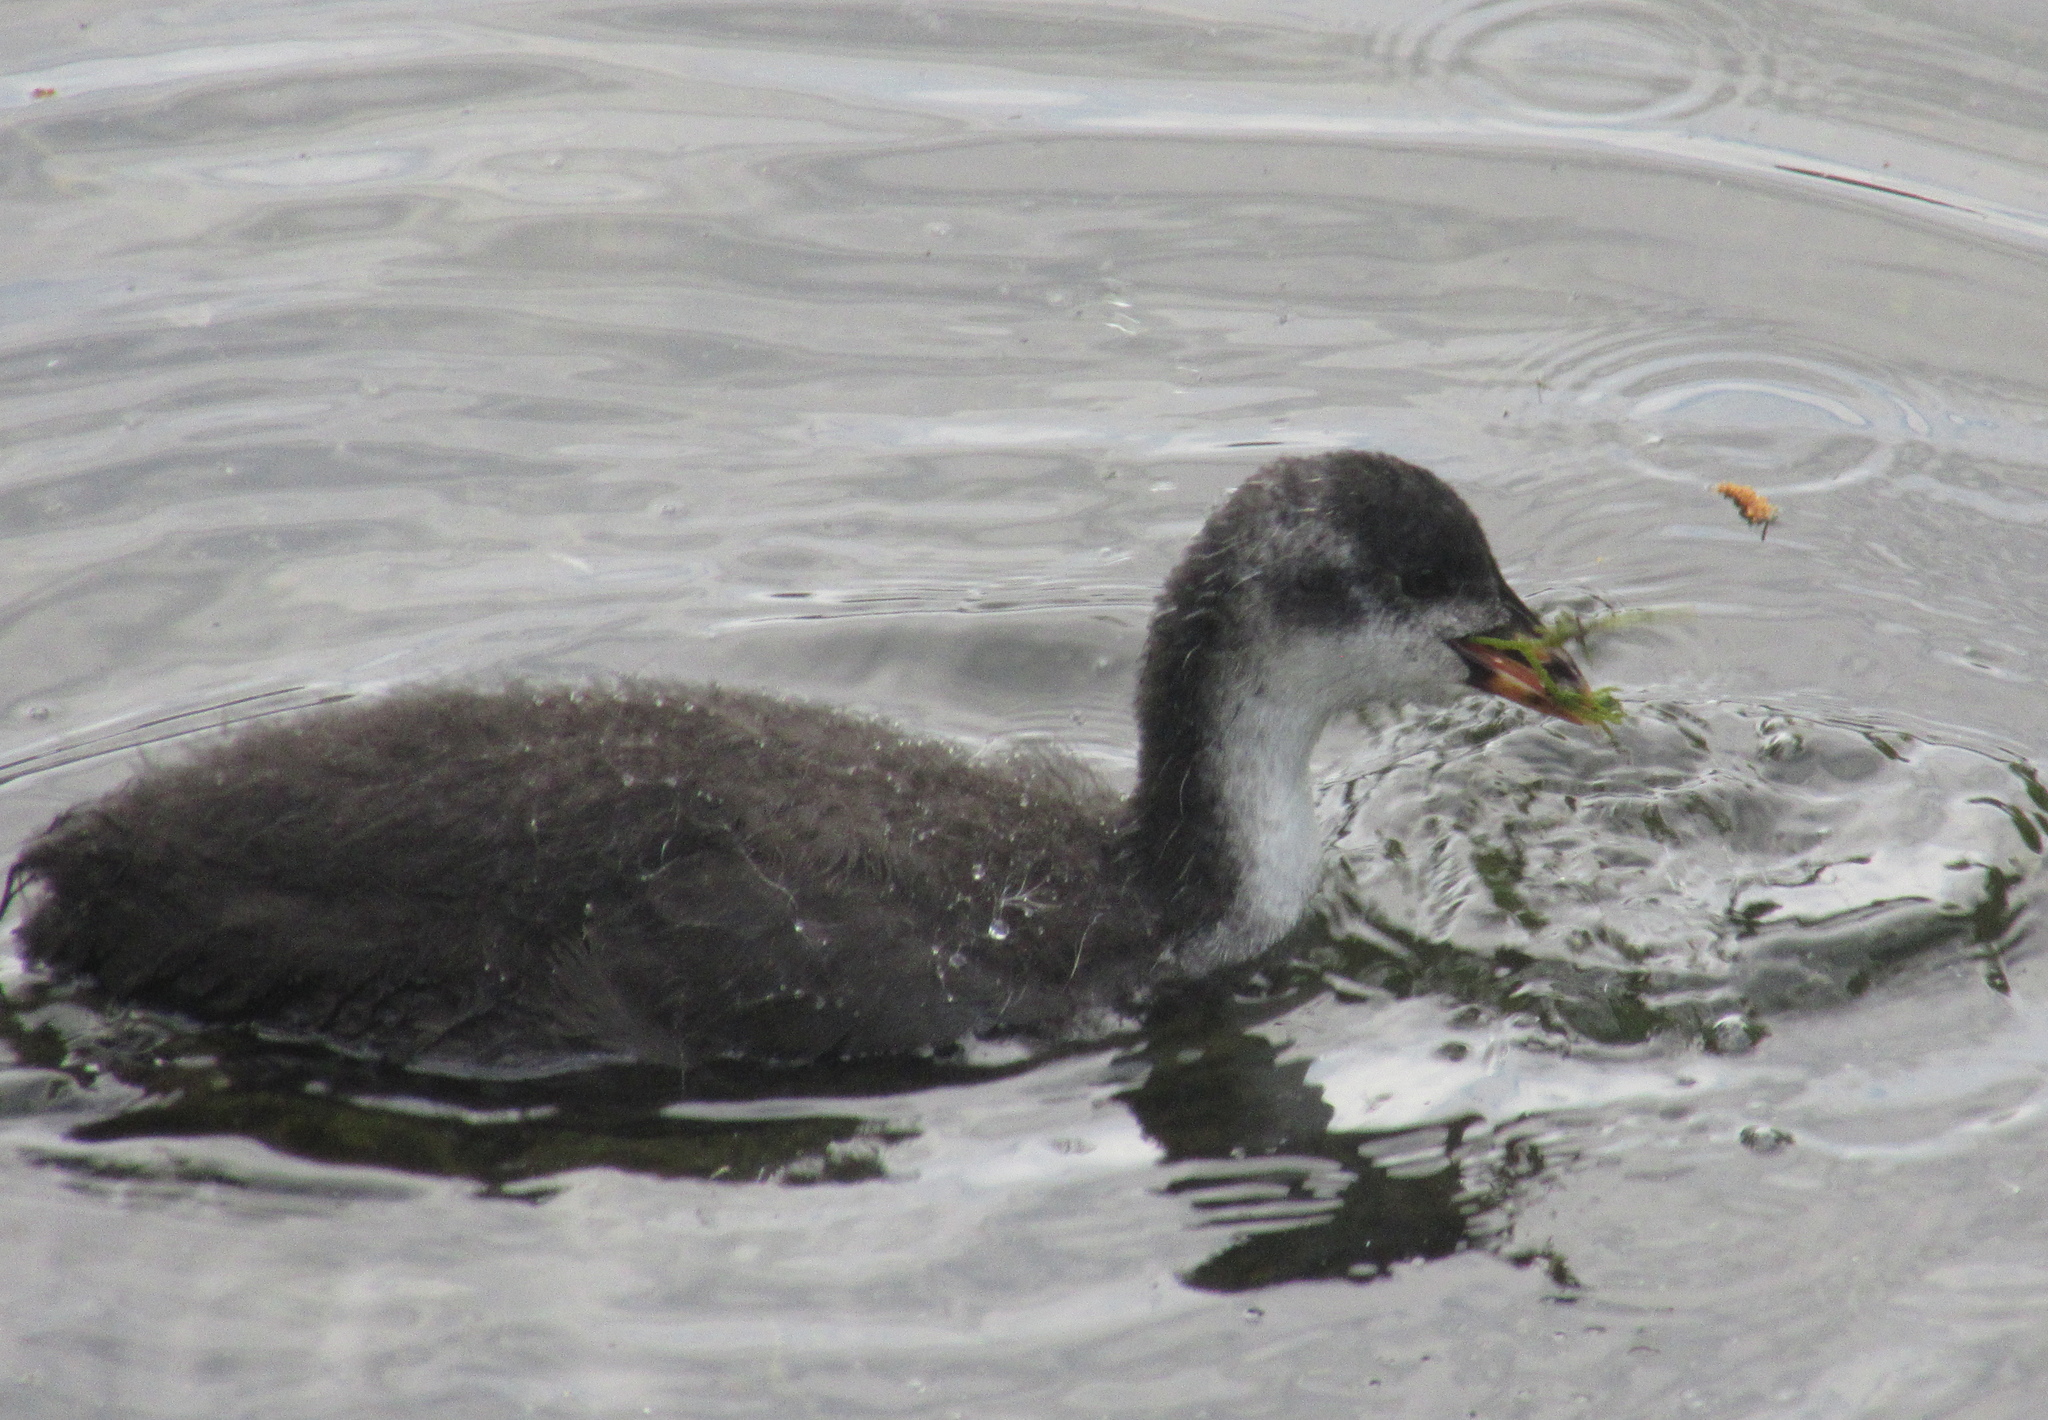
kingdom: Animalia
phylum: Chordata
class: Aves
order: Gruiformes
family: Rallidae
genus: Fulica
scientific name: Fulica atra
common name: Eurasian coot
